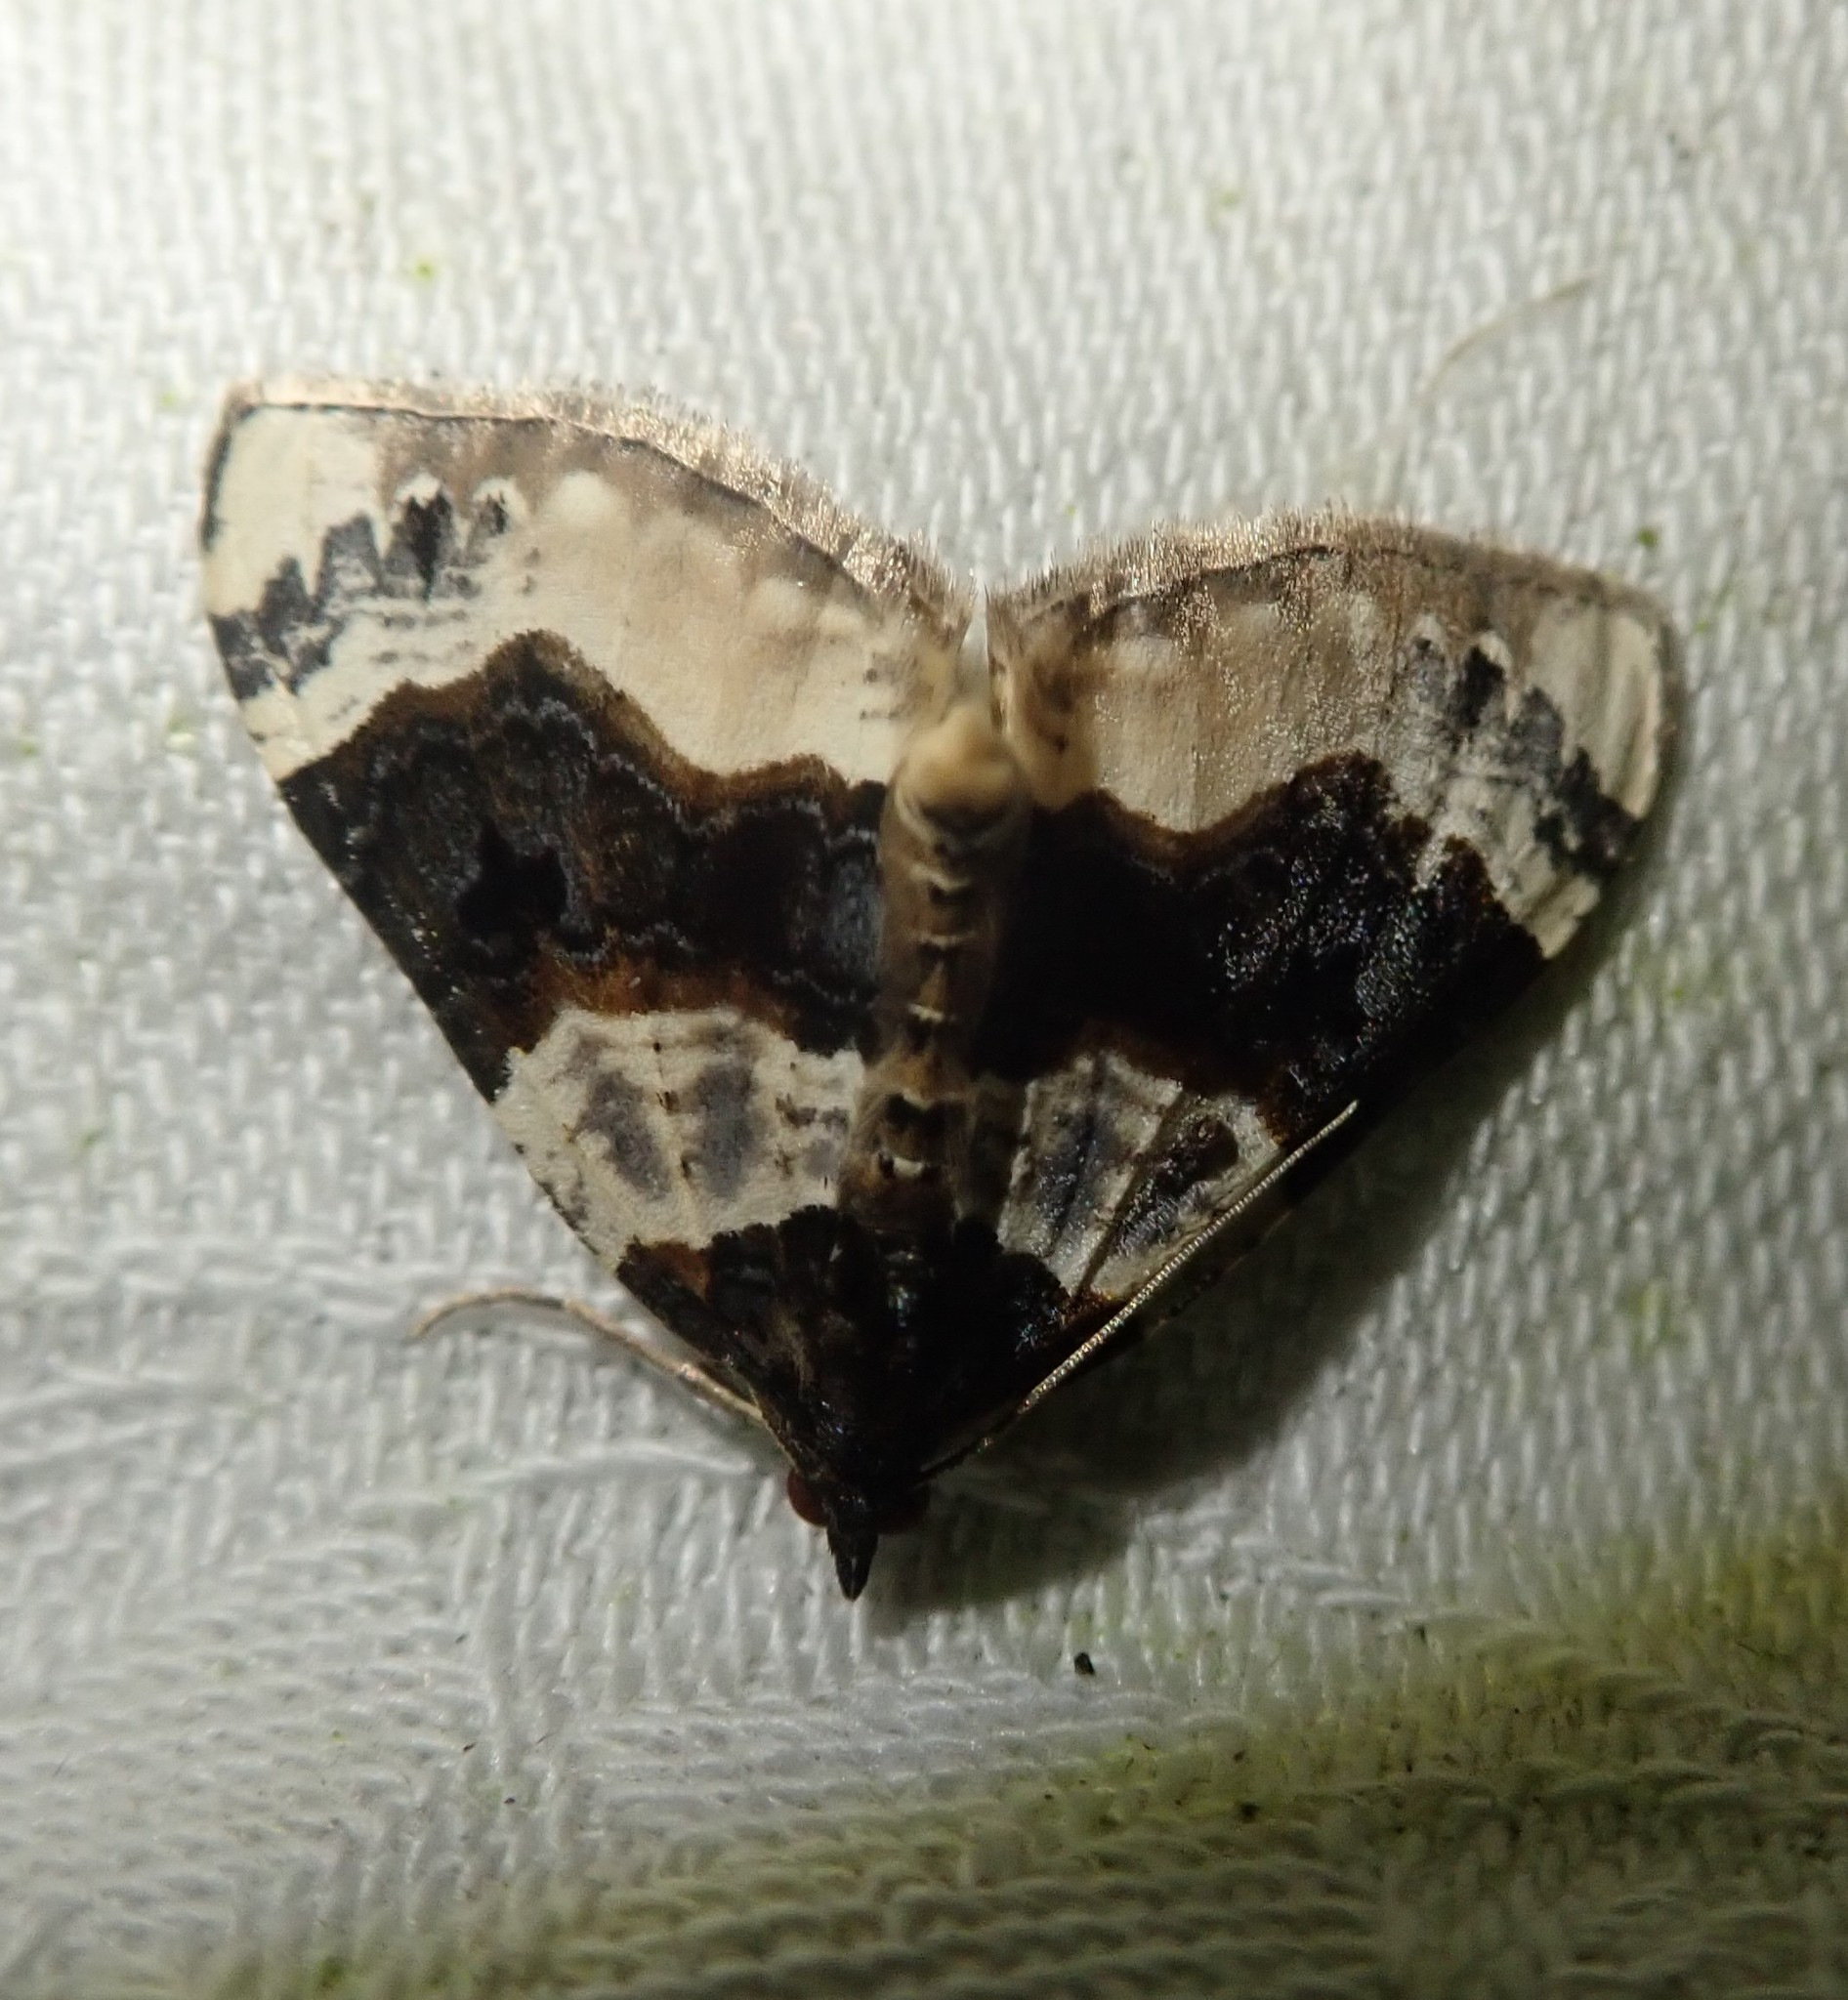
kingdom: Animalia
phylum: Arthropoda
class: Insecta
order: Lepidoptera
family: Geometridae
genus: Cosmorhoe
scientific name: Cosmorhoe ocellata
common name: Purple bar
